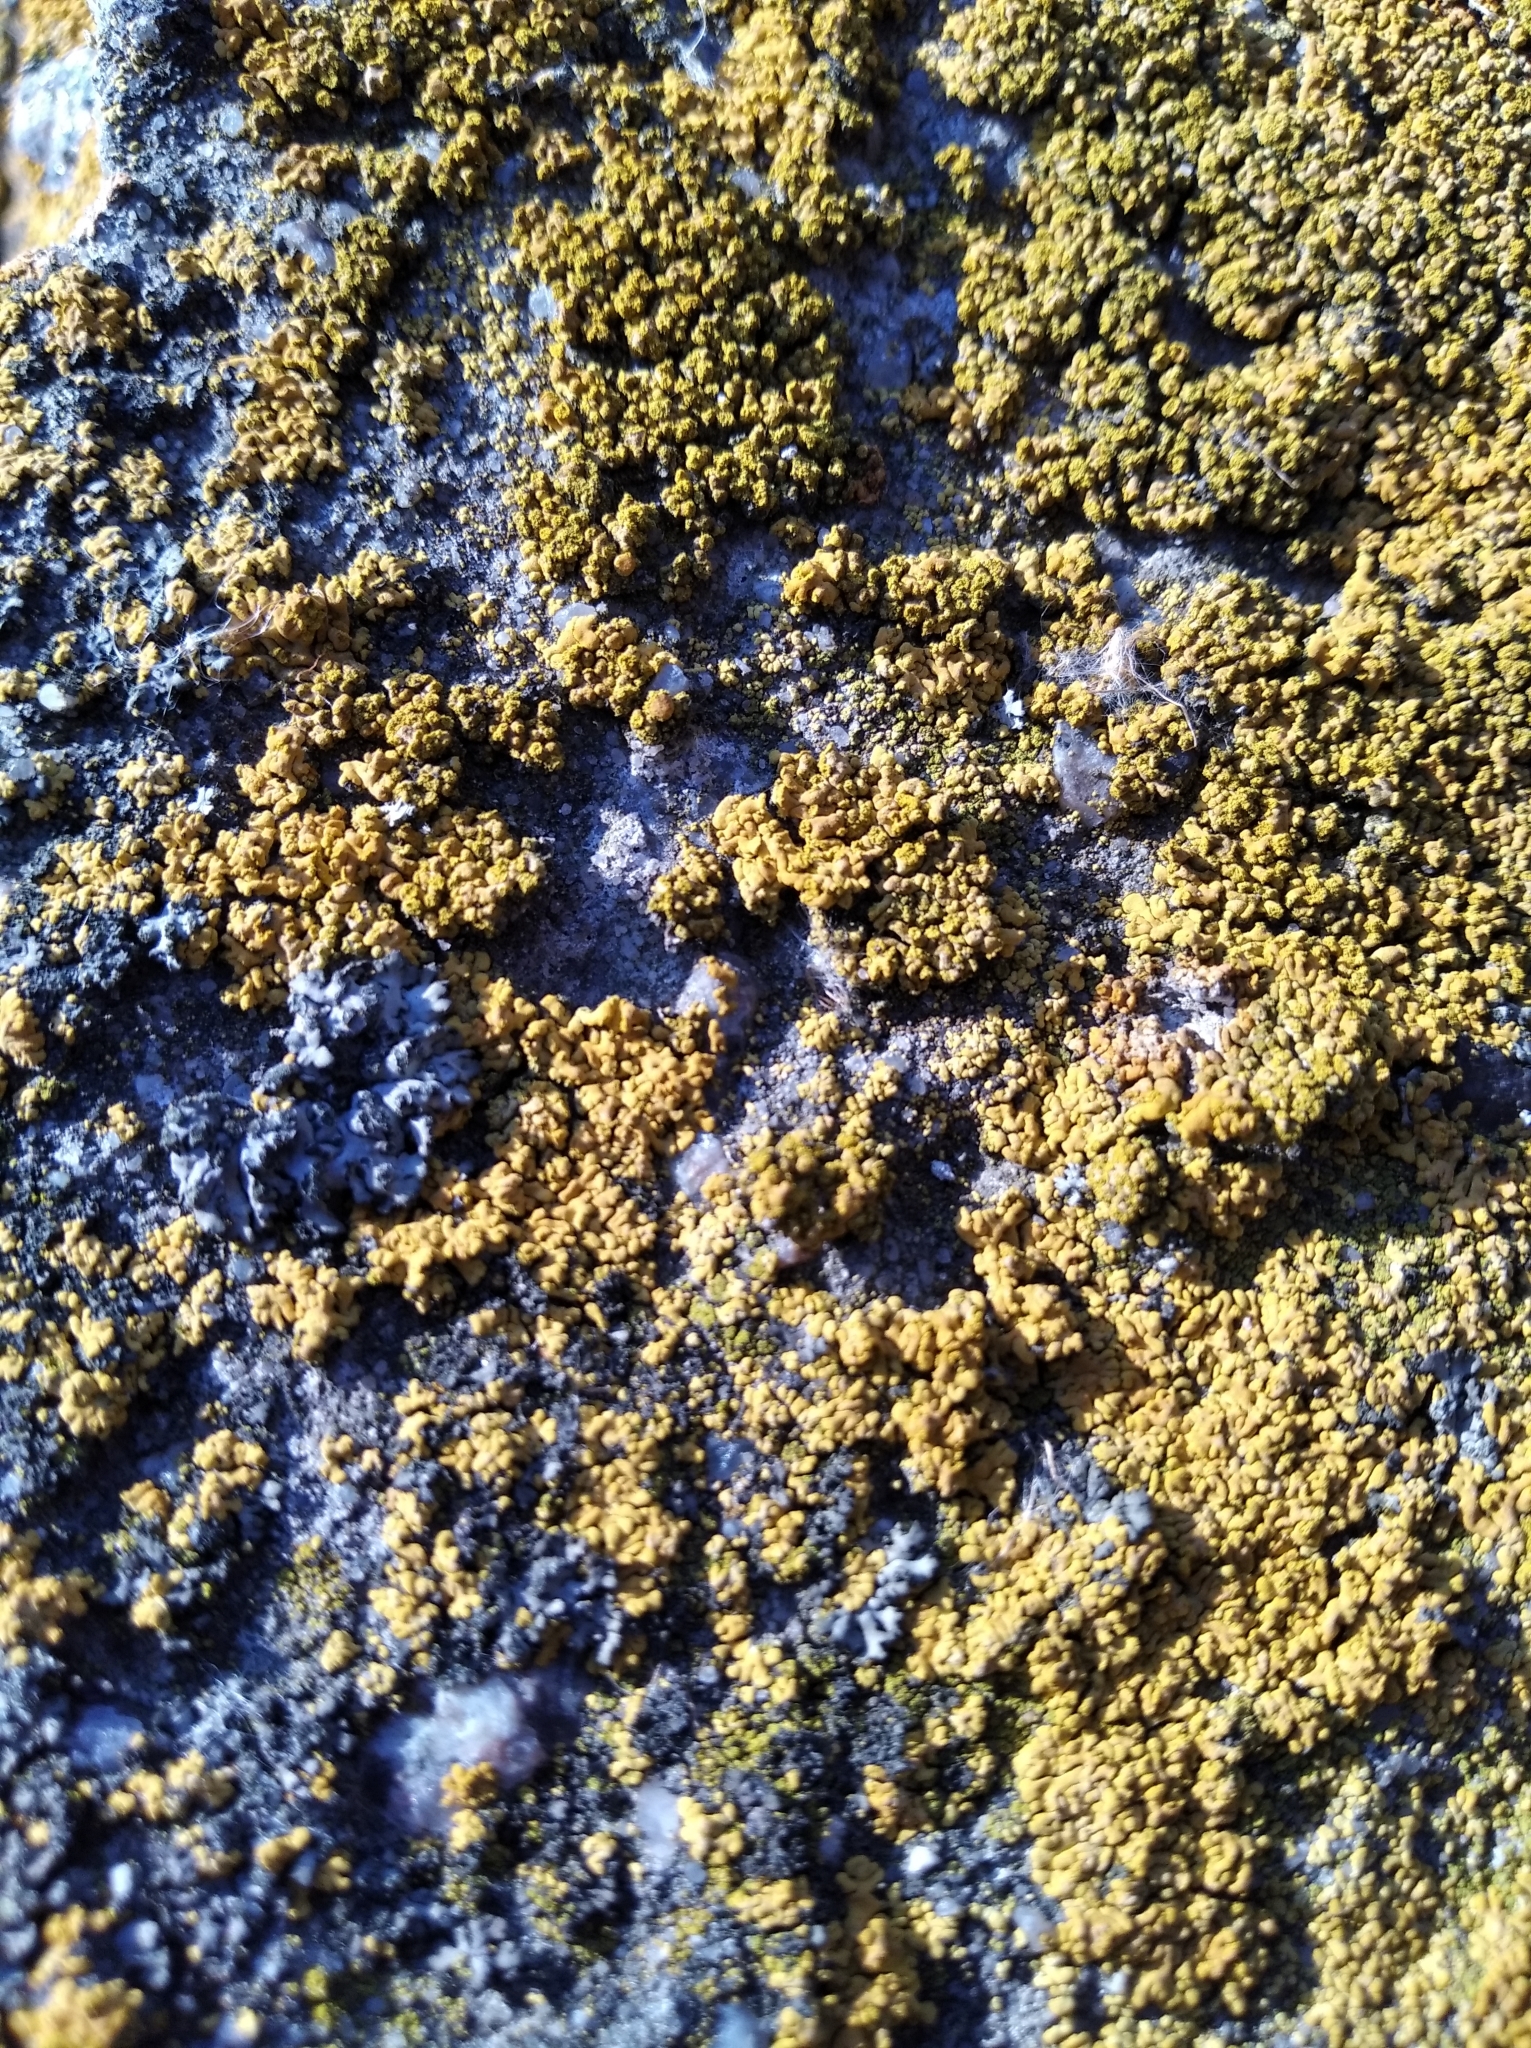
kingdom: Fungi
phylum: Ascomycota
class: Lecanoromycetes
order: Teloschistales
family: Teloschistaceae
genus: Calogaya
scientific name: Calogaya decipiens
